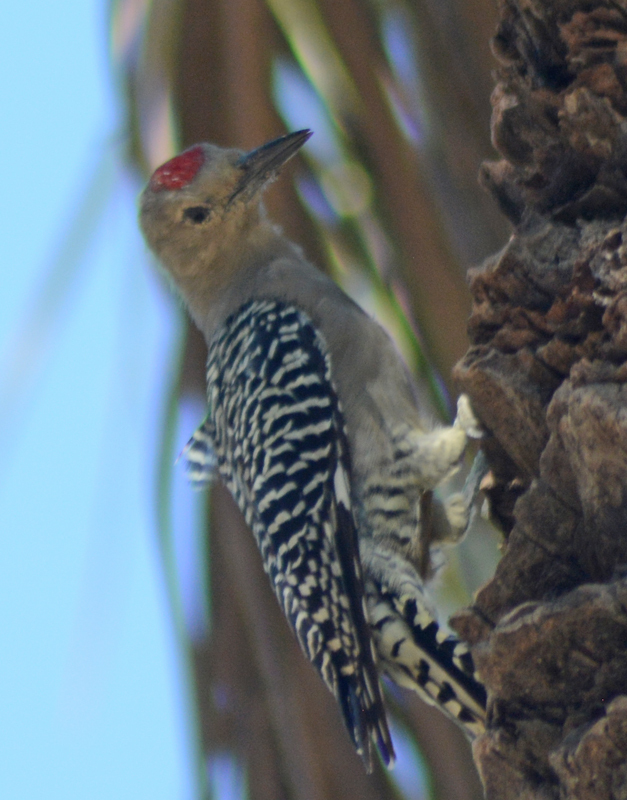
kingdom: Animalia
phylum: Chordata
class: Aves
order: Piciformes
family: Picidae
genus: Melanerpes
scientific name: Melanerpes uropygialis
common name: Gila woodpecker
